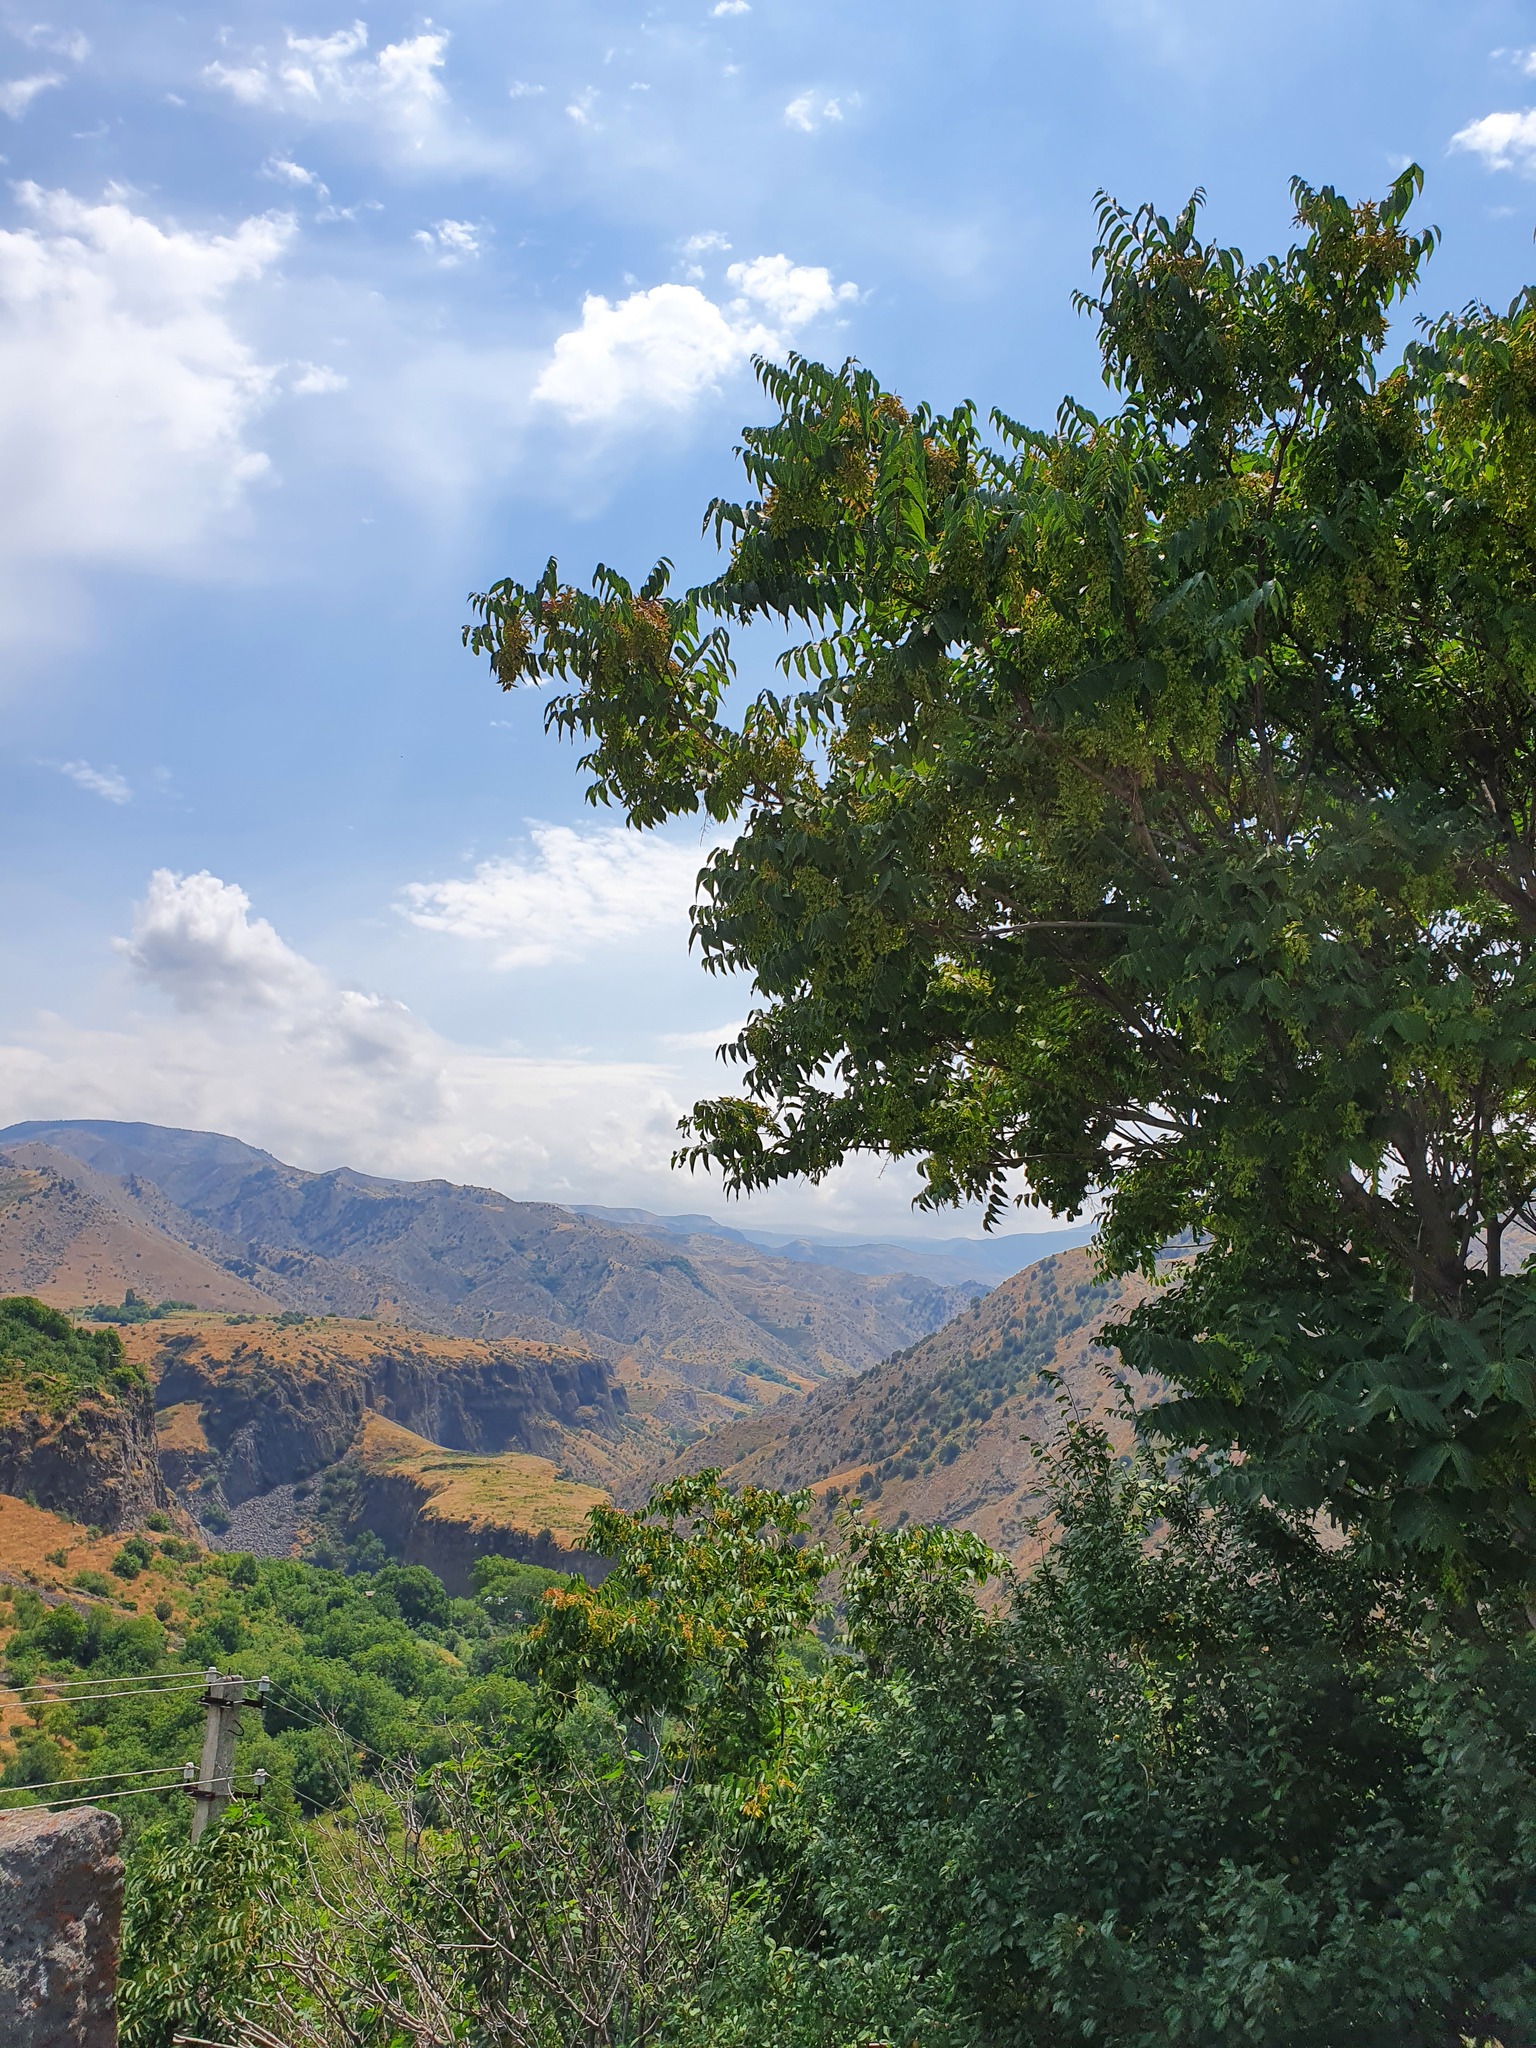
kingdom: Plantae
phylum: Tracheophyta
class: Magnoliopsida
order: Sapindales
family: Simaroubaceae
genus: Ailanthus
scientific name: Ailanthus altissima
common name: Tree-of-heaven
